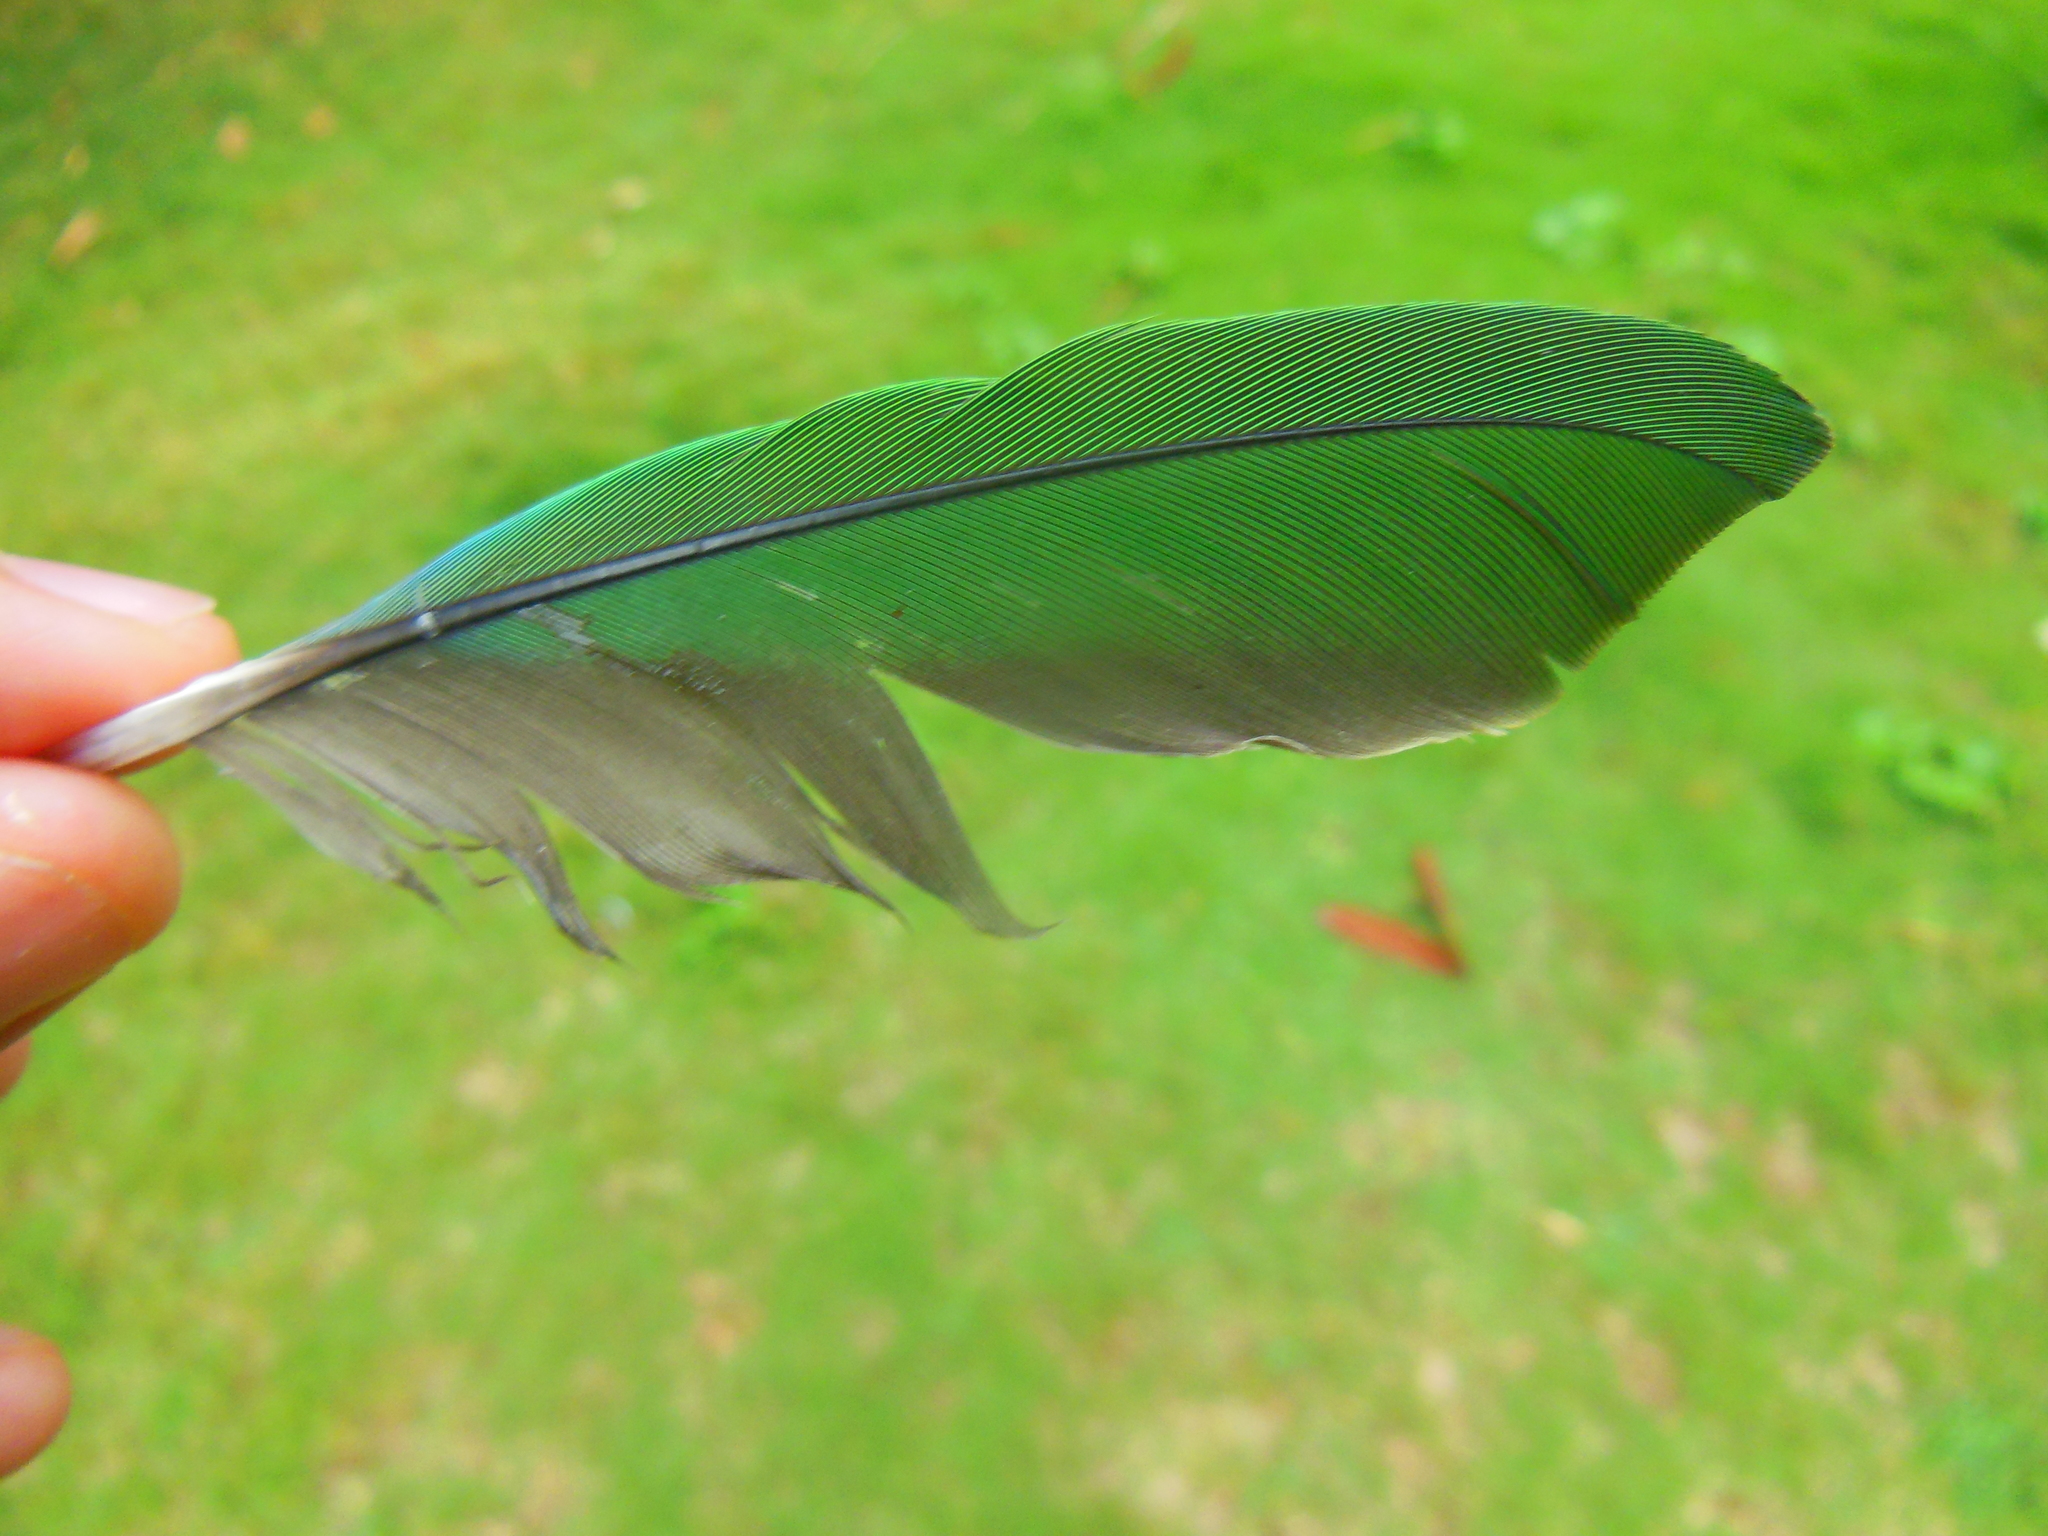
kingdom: Animalia
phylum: Chordata
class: Aves
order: Psittaciformes
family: Psittacidae
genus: Psittacula
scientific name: Psittacula eupatria
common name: Alexandrine parakeet
